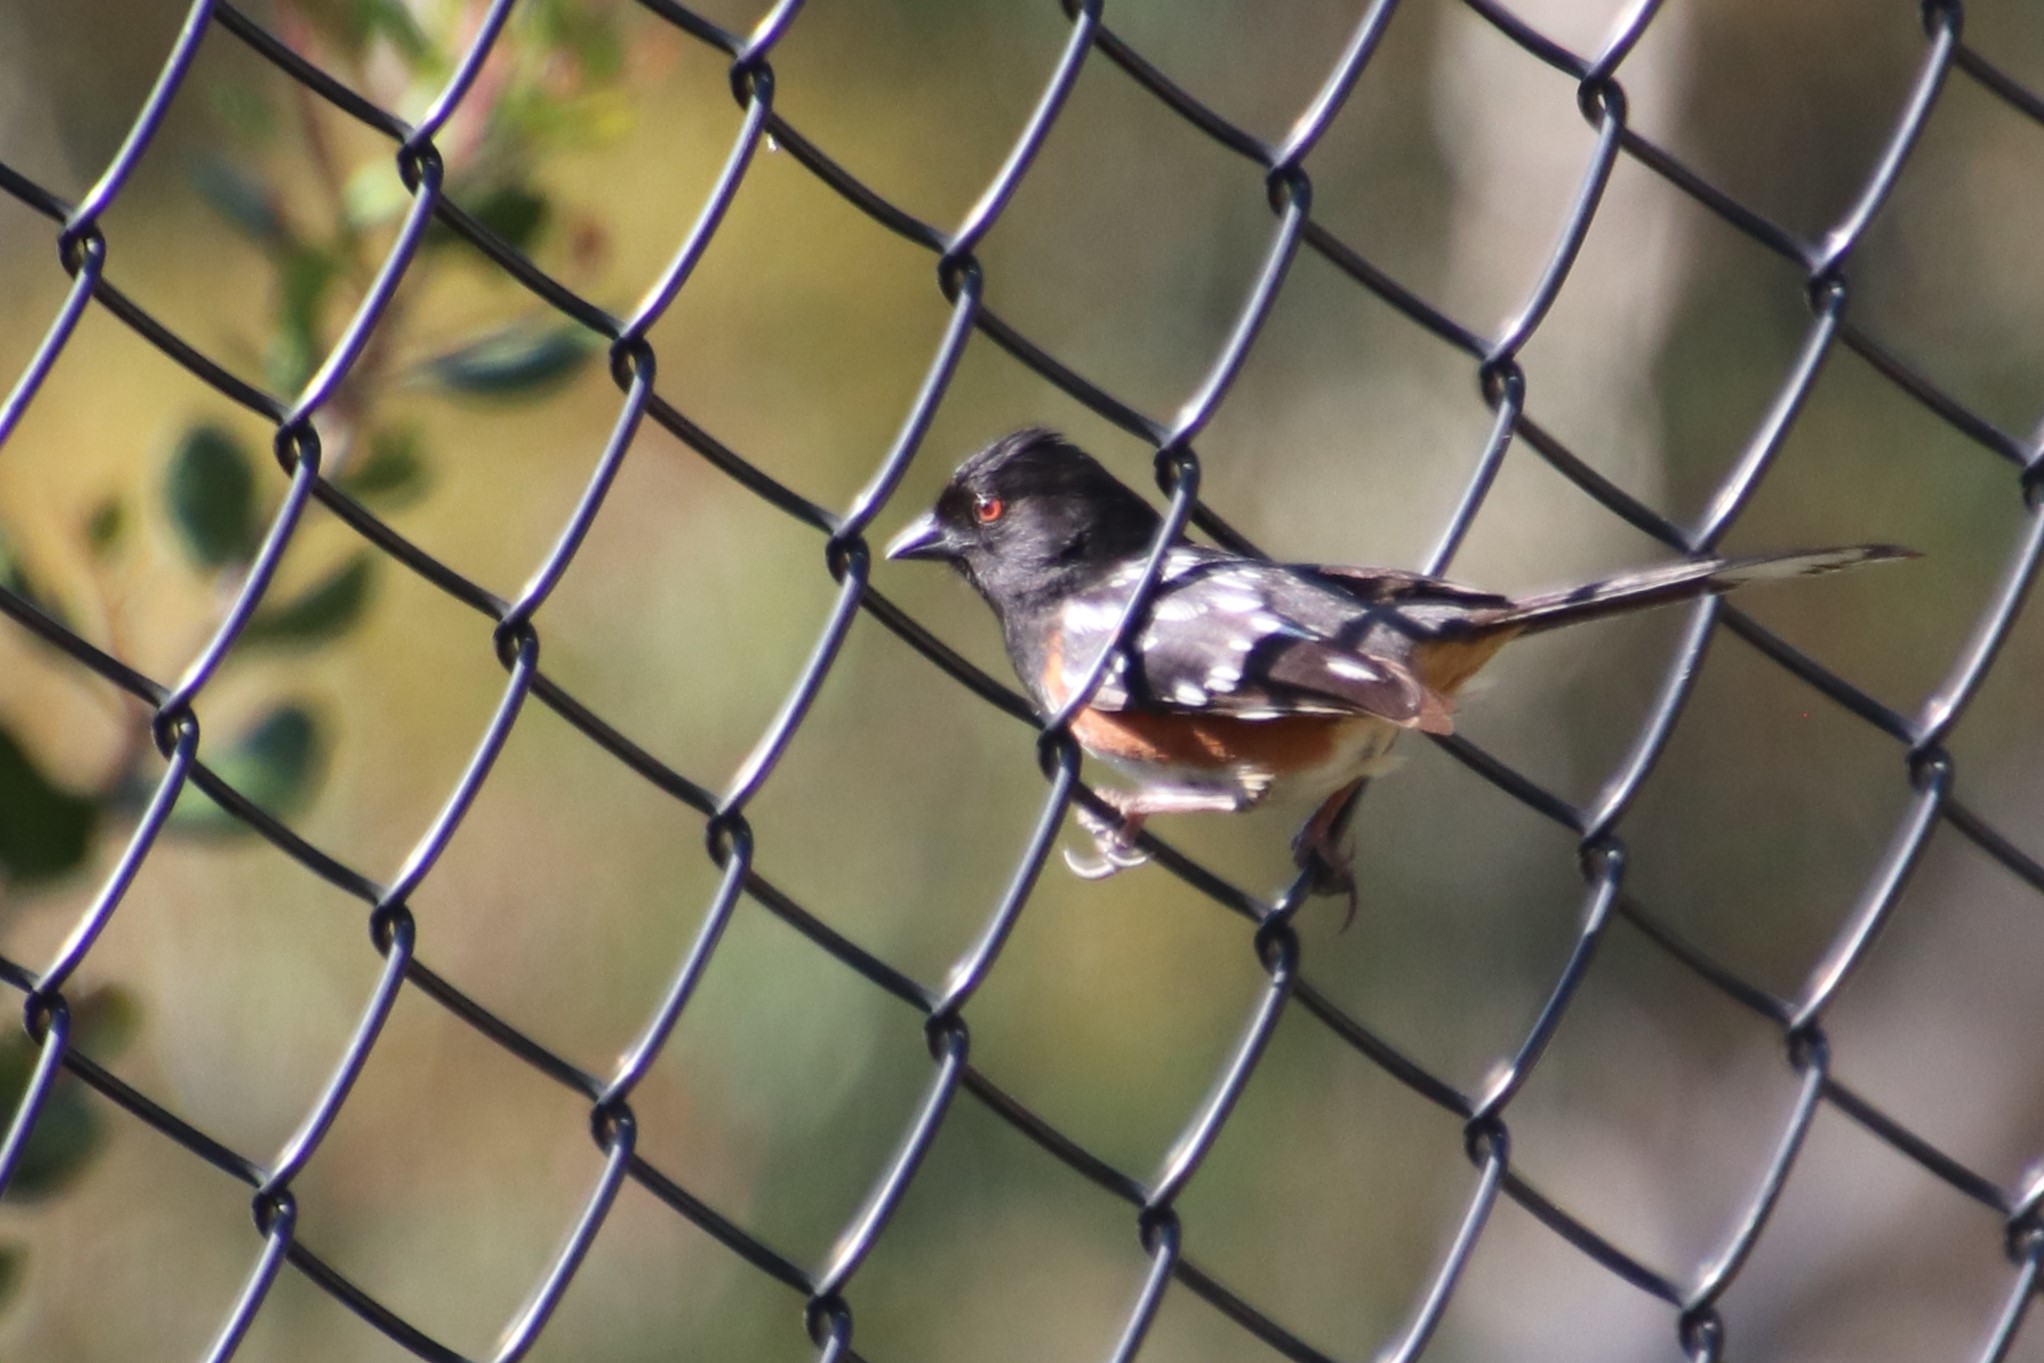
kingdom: Animalia
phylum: Chordata
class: Aves
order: Passeriformes
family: Passerellidae
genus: Pipilo
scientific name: Pipilo maculatus
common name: Spotted towhee
